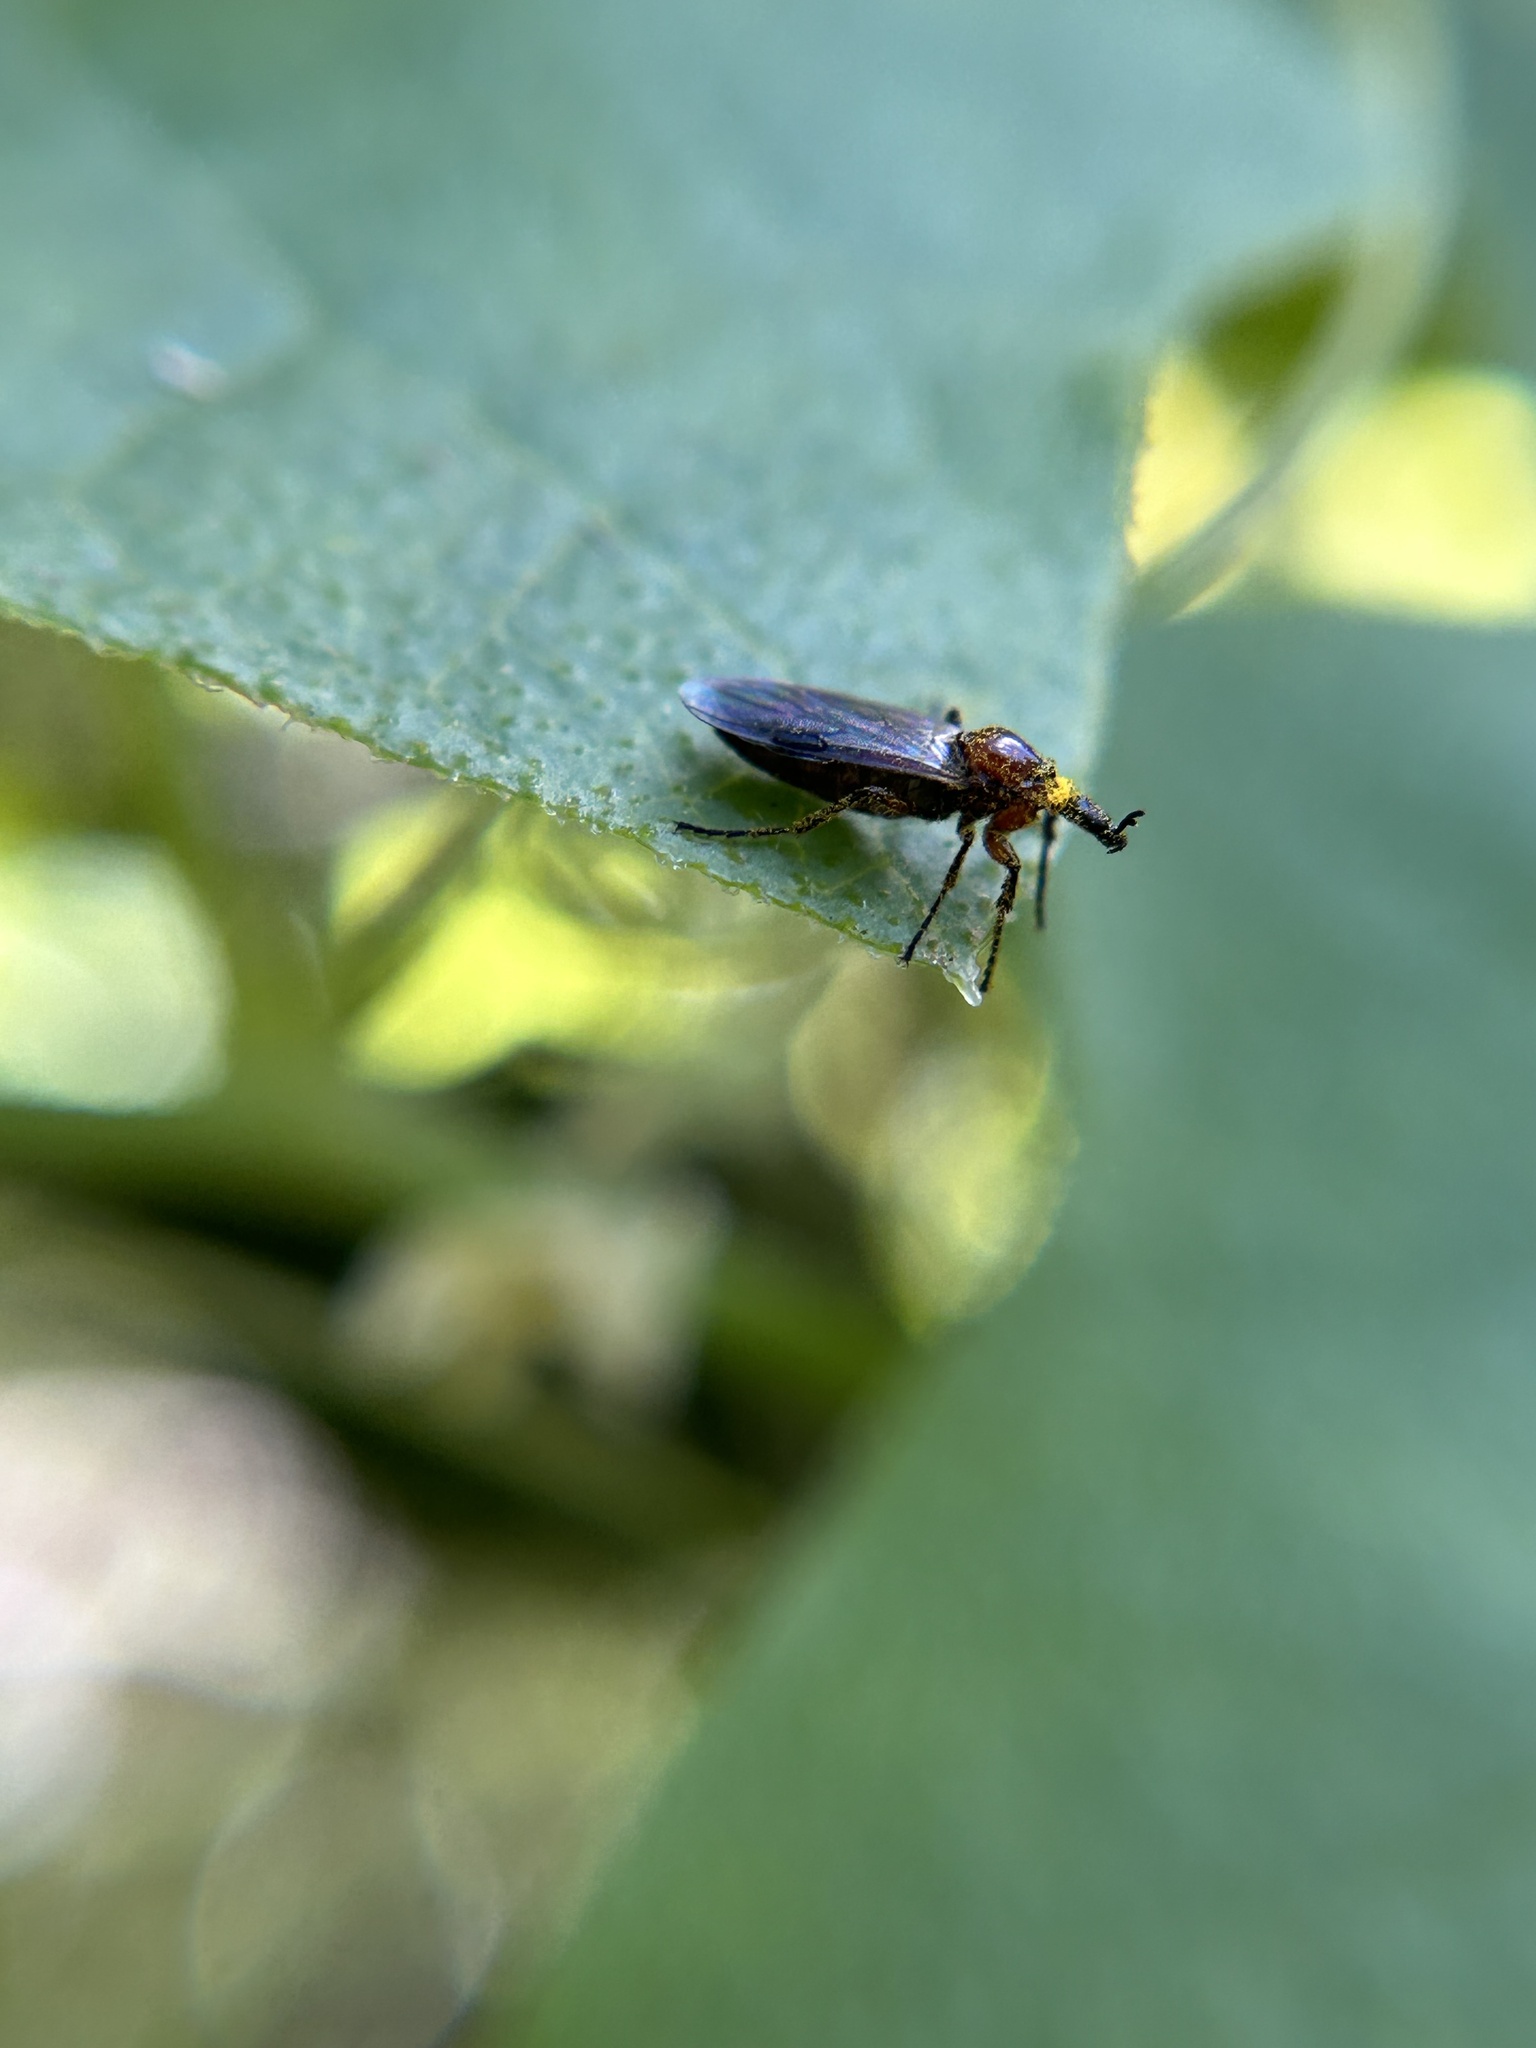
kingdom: Animalia
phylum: Arthropoda
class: Insecta
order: Diptera
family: Bibionidae
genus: Dilophus
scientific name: Dilophus tibialis
